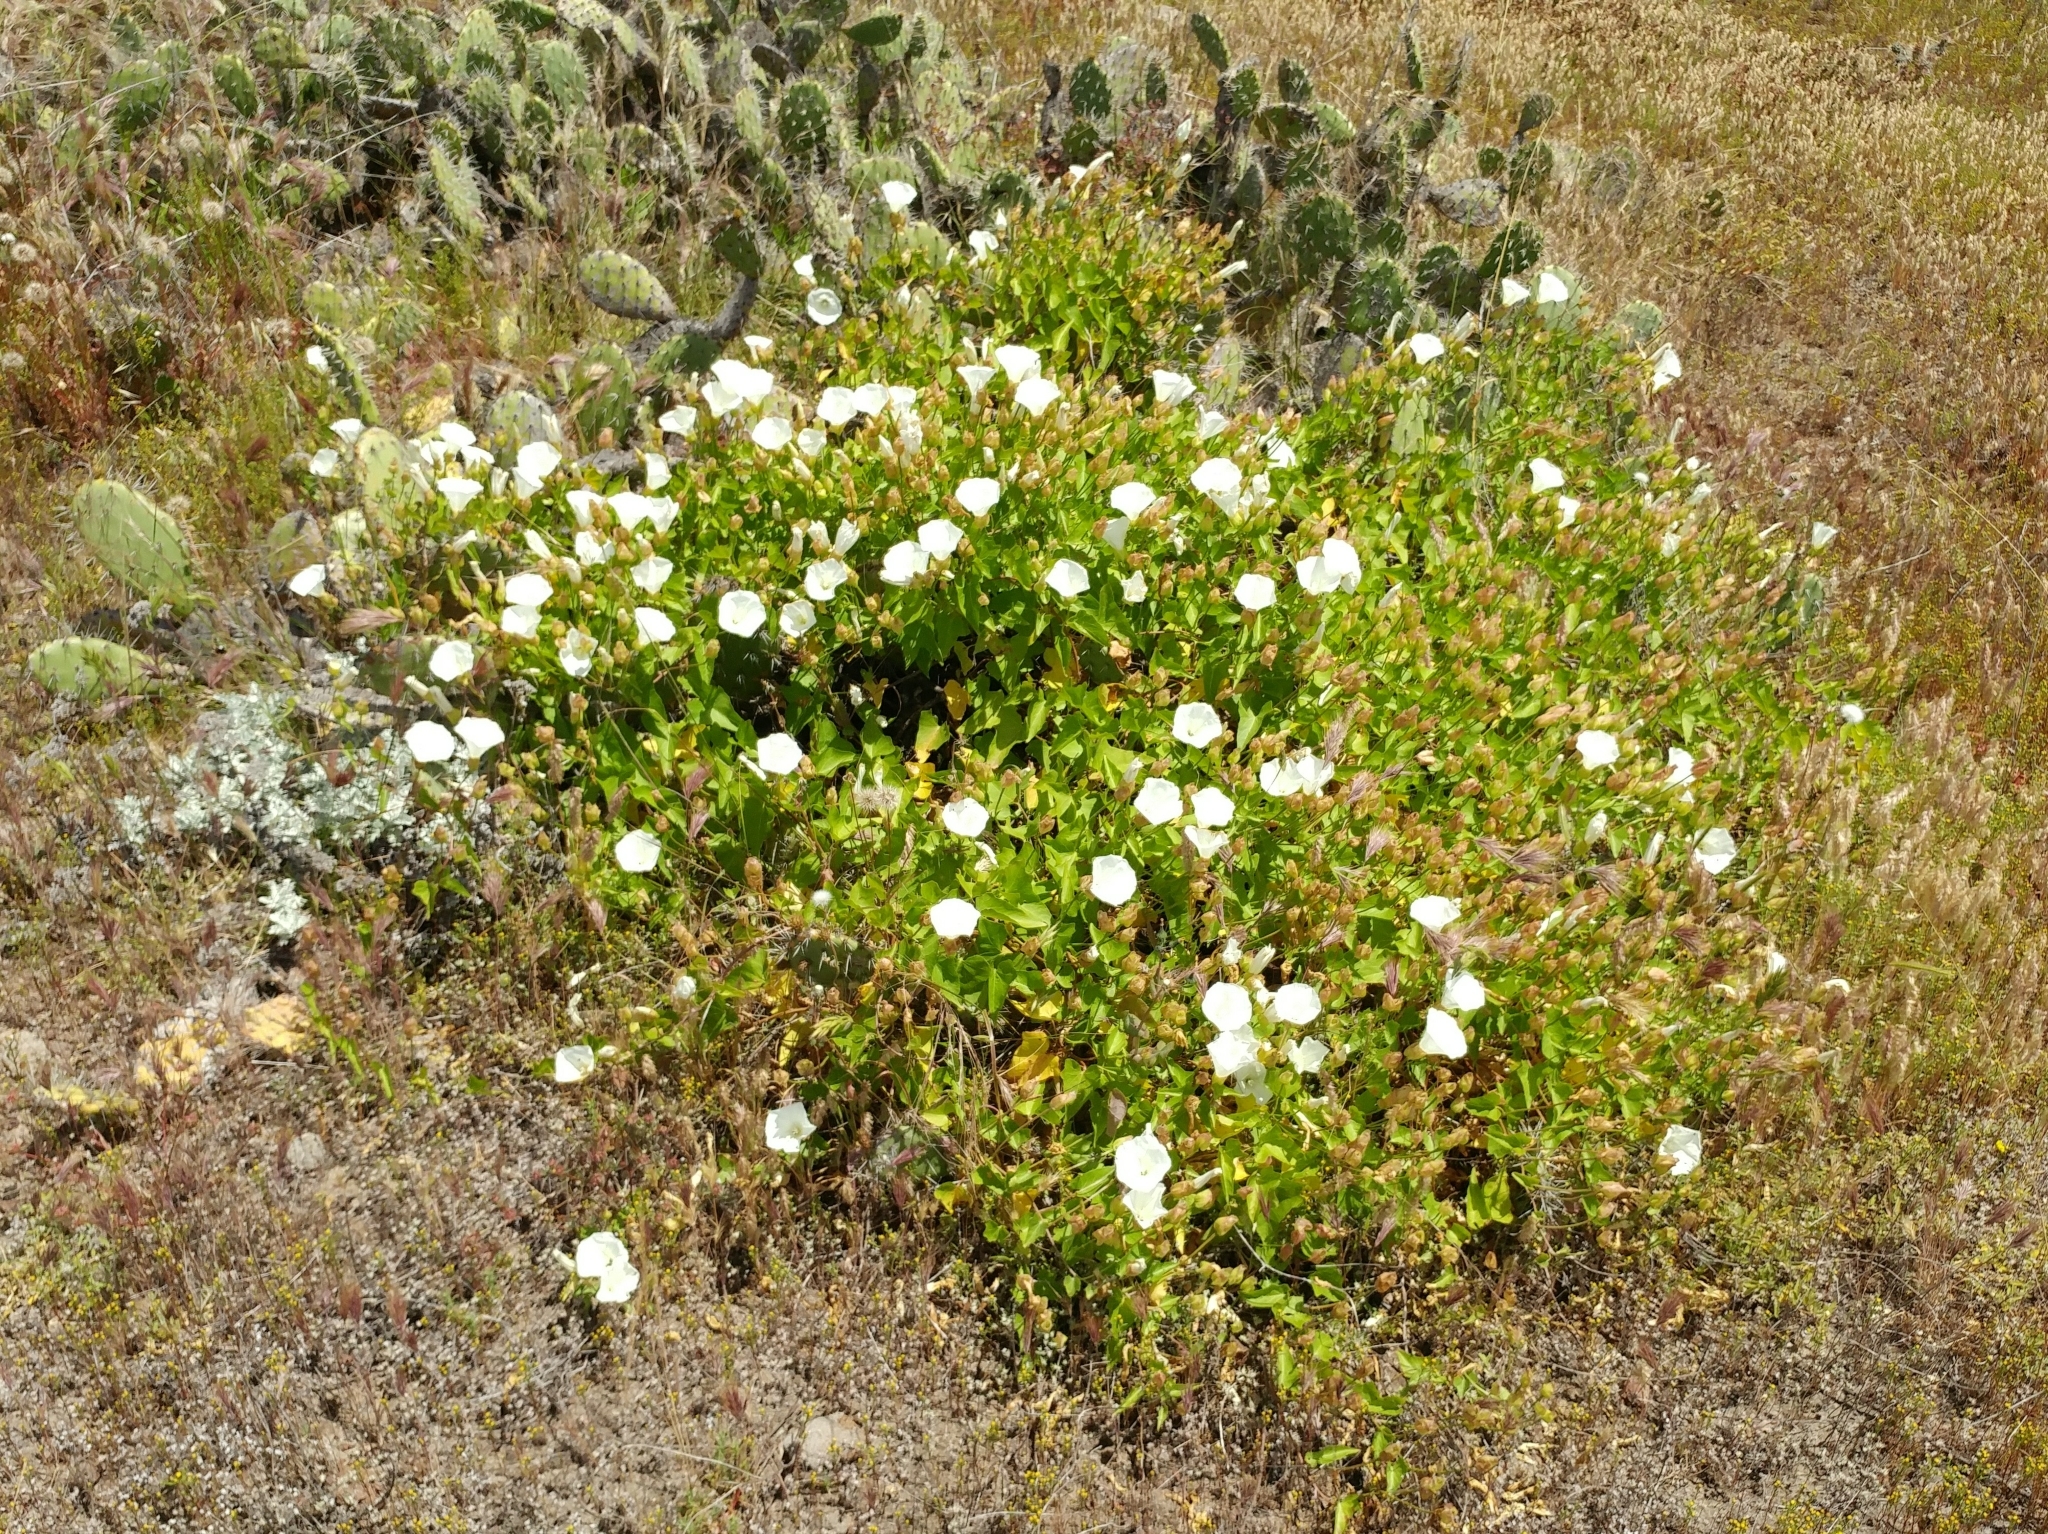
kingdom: Plantae
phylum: Tracheophyta
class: Magnoliopsida
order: Solanales
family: Convolvulaceae
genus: Calystegia
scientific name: Calystegia macrostegia
